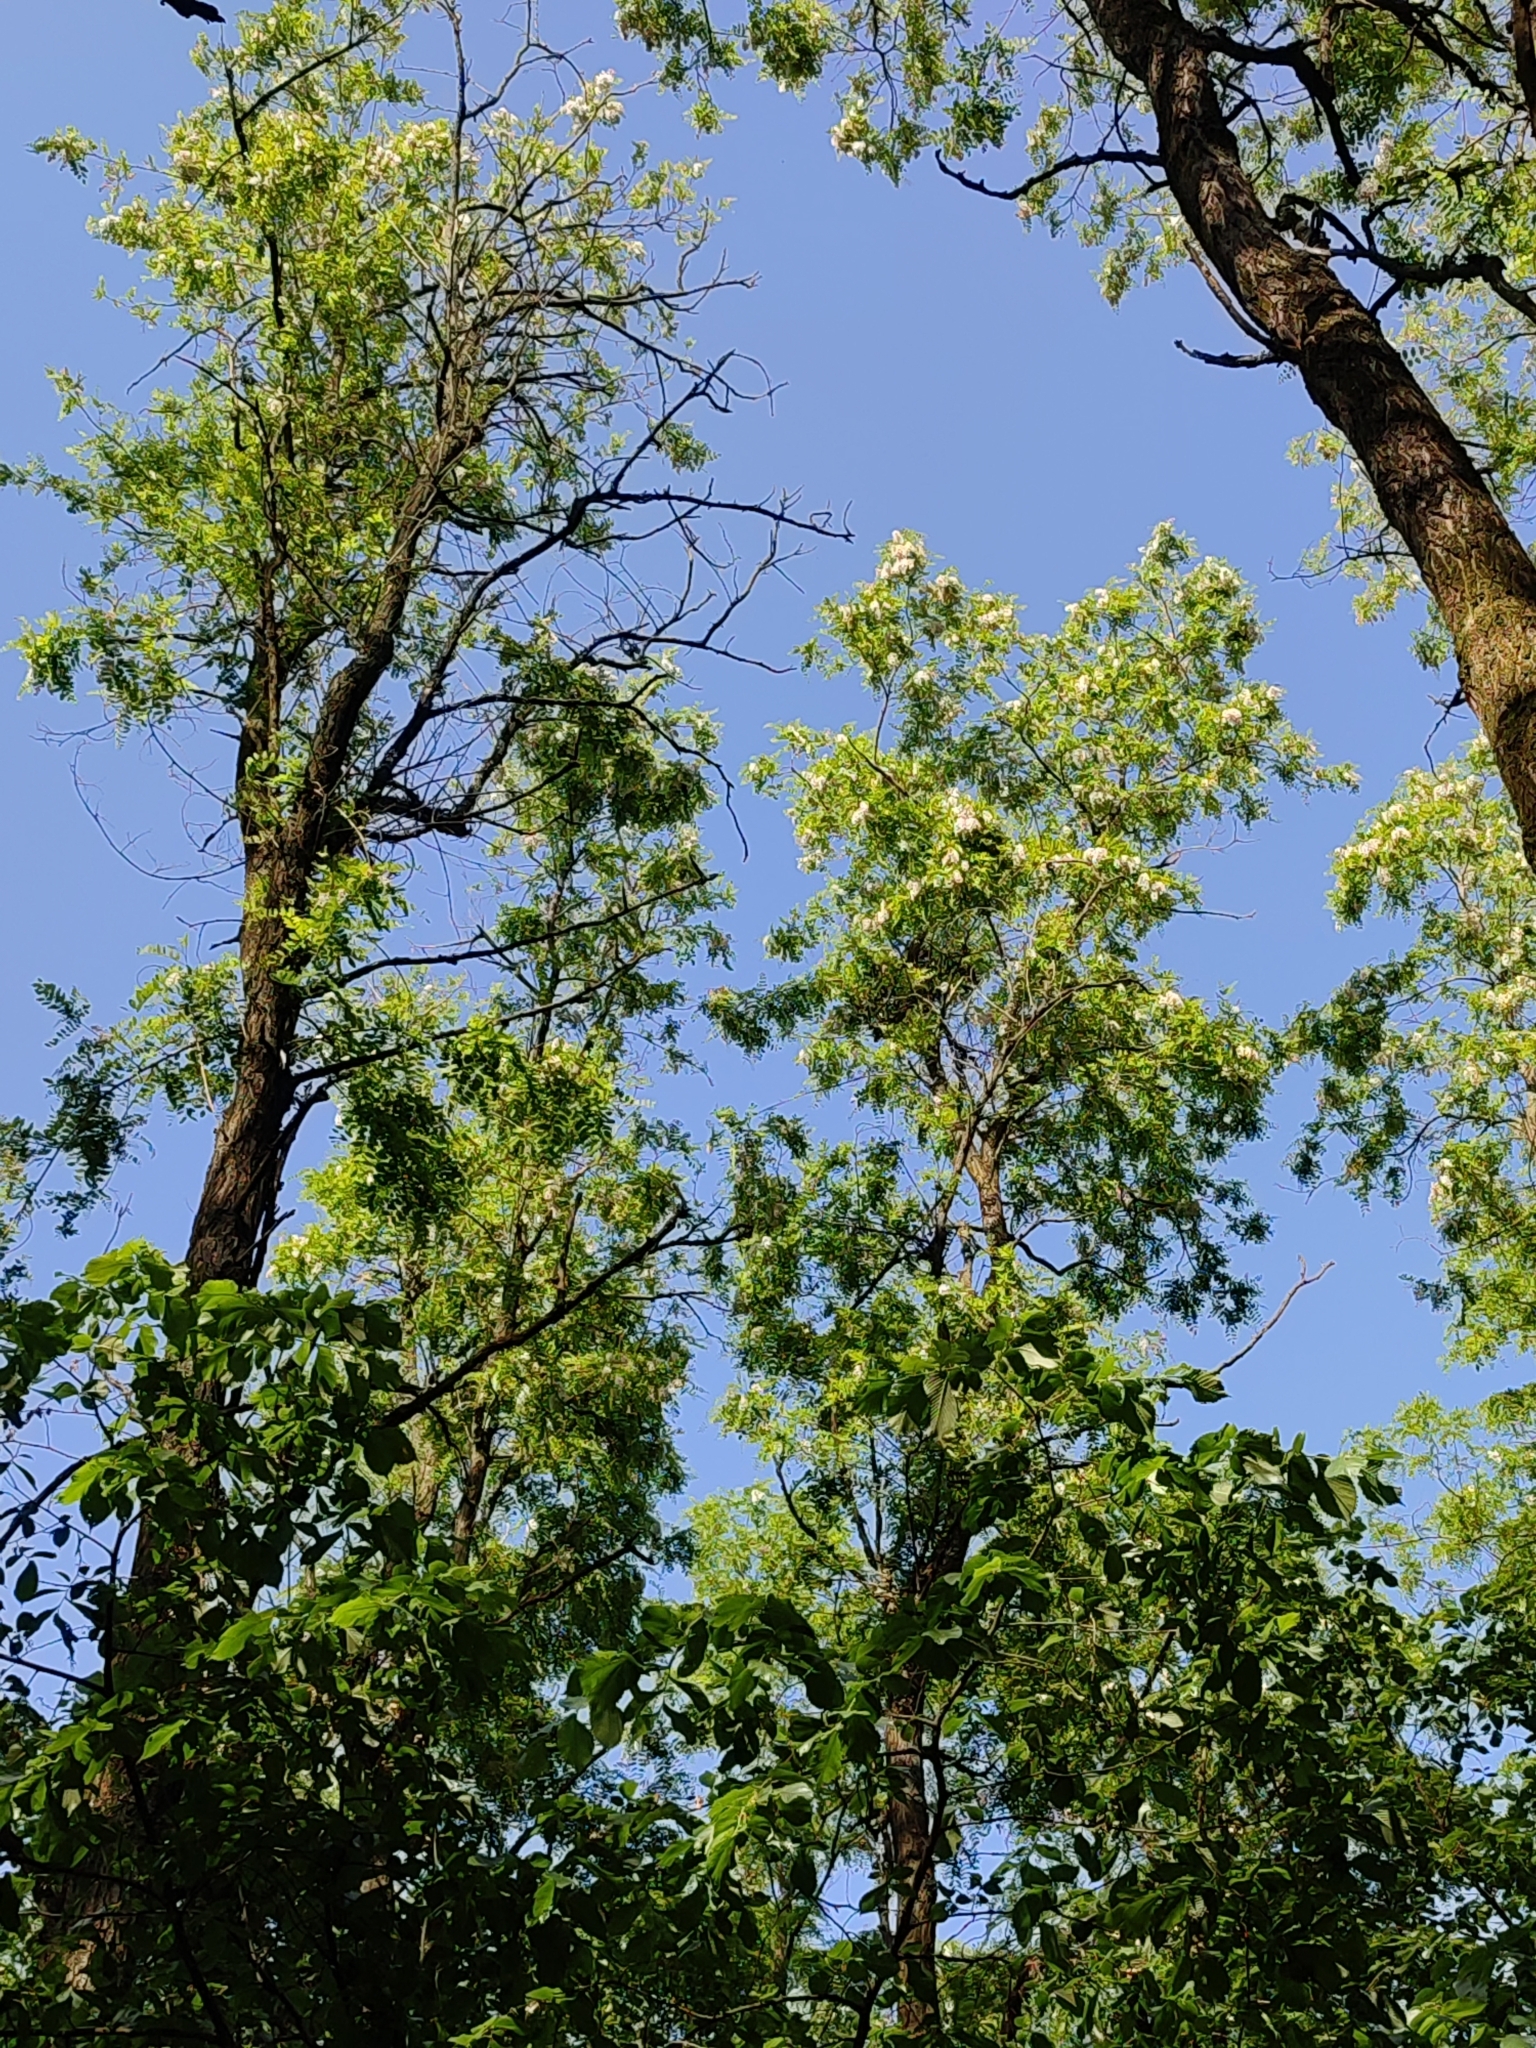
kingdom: Plantae
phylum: Tracheophyta
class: Magnoliopsida
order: Fabales
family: Fabaceae
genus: Robinia
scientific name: Robinia pseudoacacia
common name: Black locust
